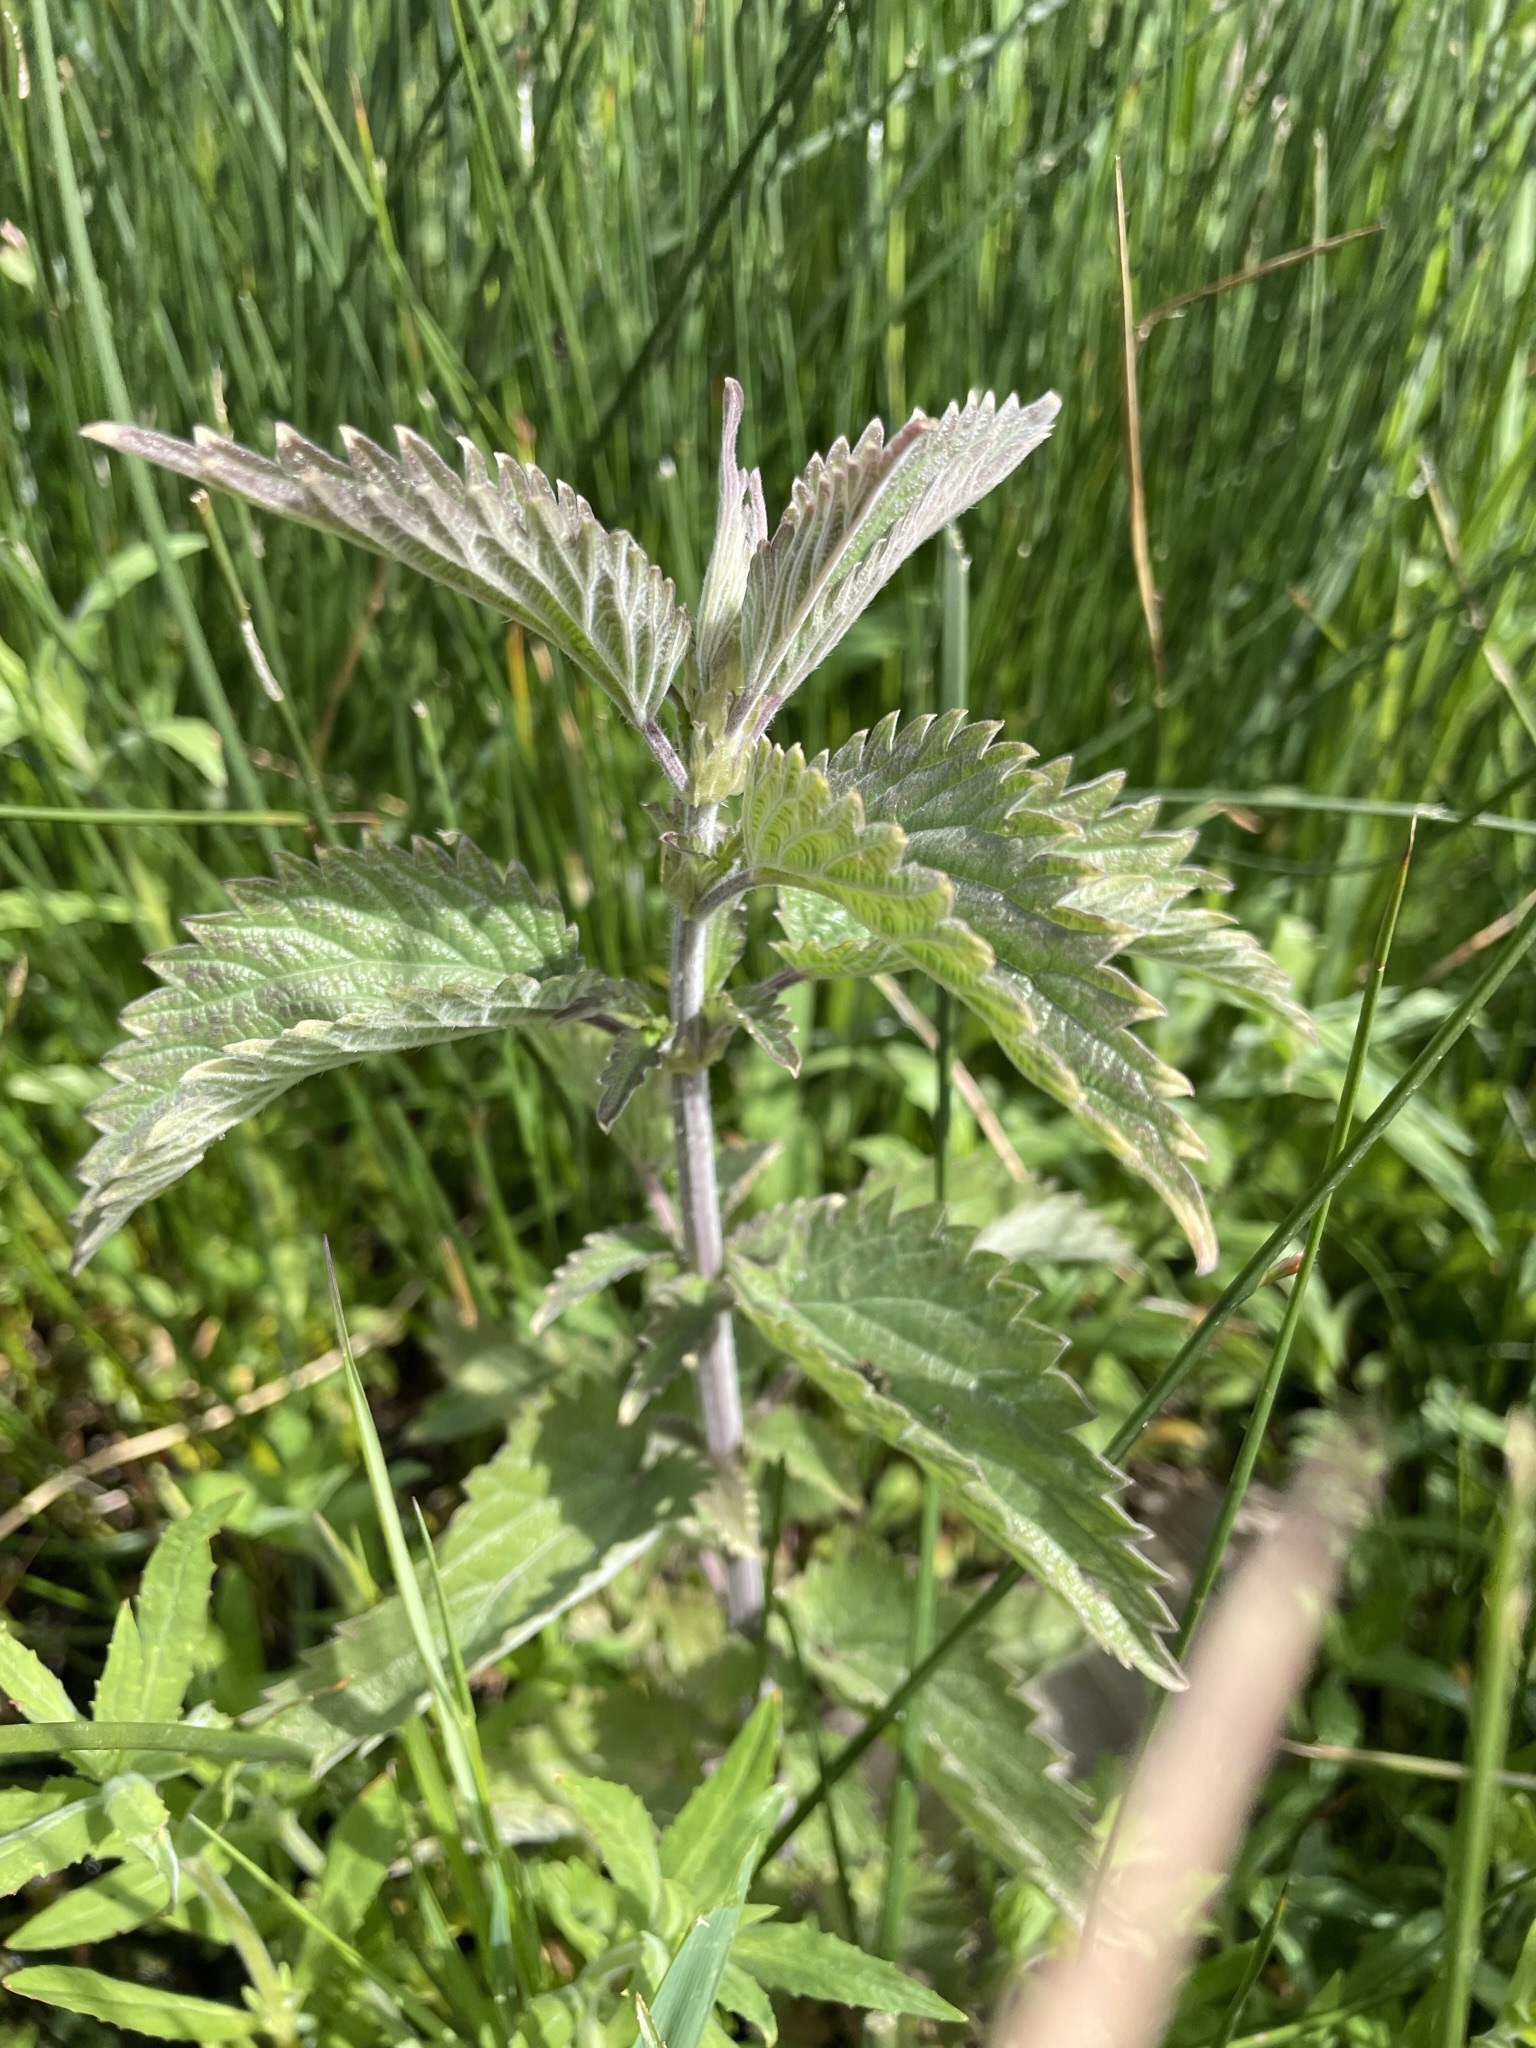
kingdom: Plantae
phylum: Tracheophyta
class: Magnoliopsida
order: Rosales
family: Urticaceae
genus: Urtica
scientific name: Urtica gracilis
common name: Slender stinging nettle
